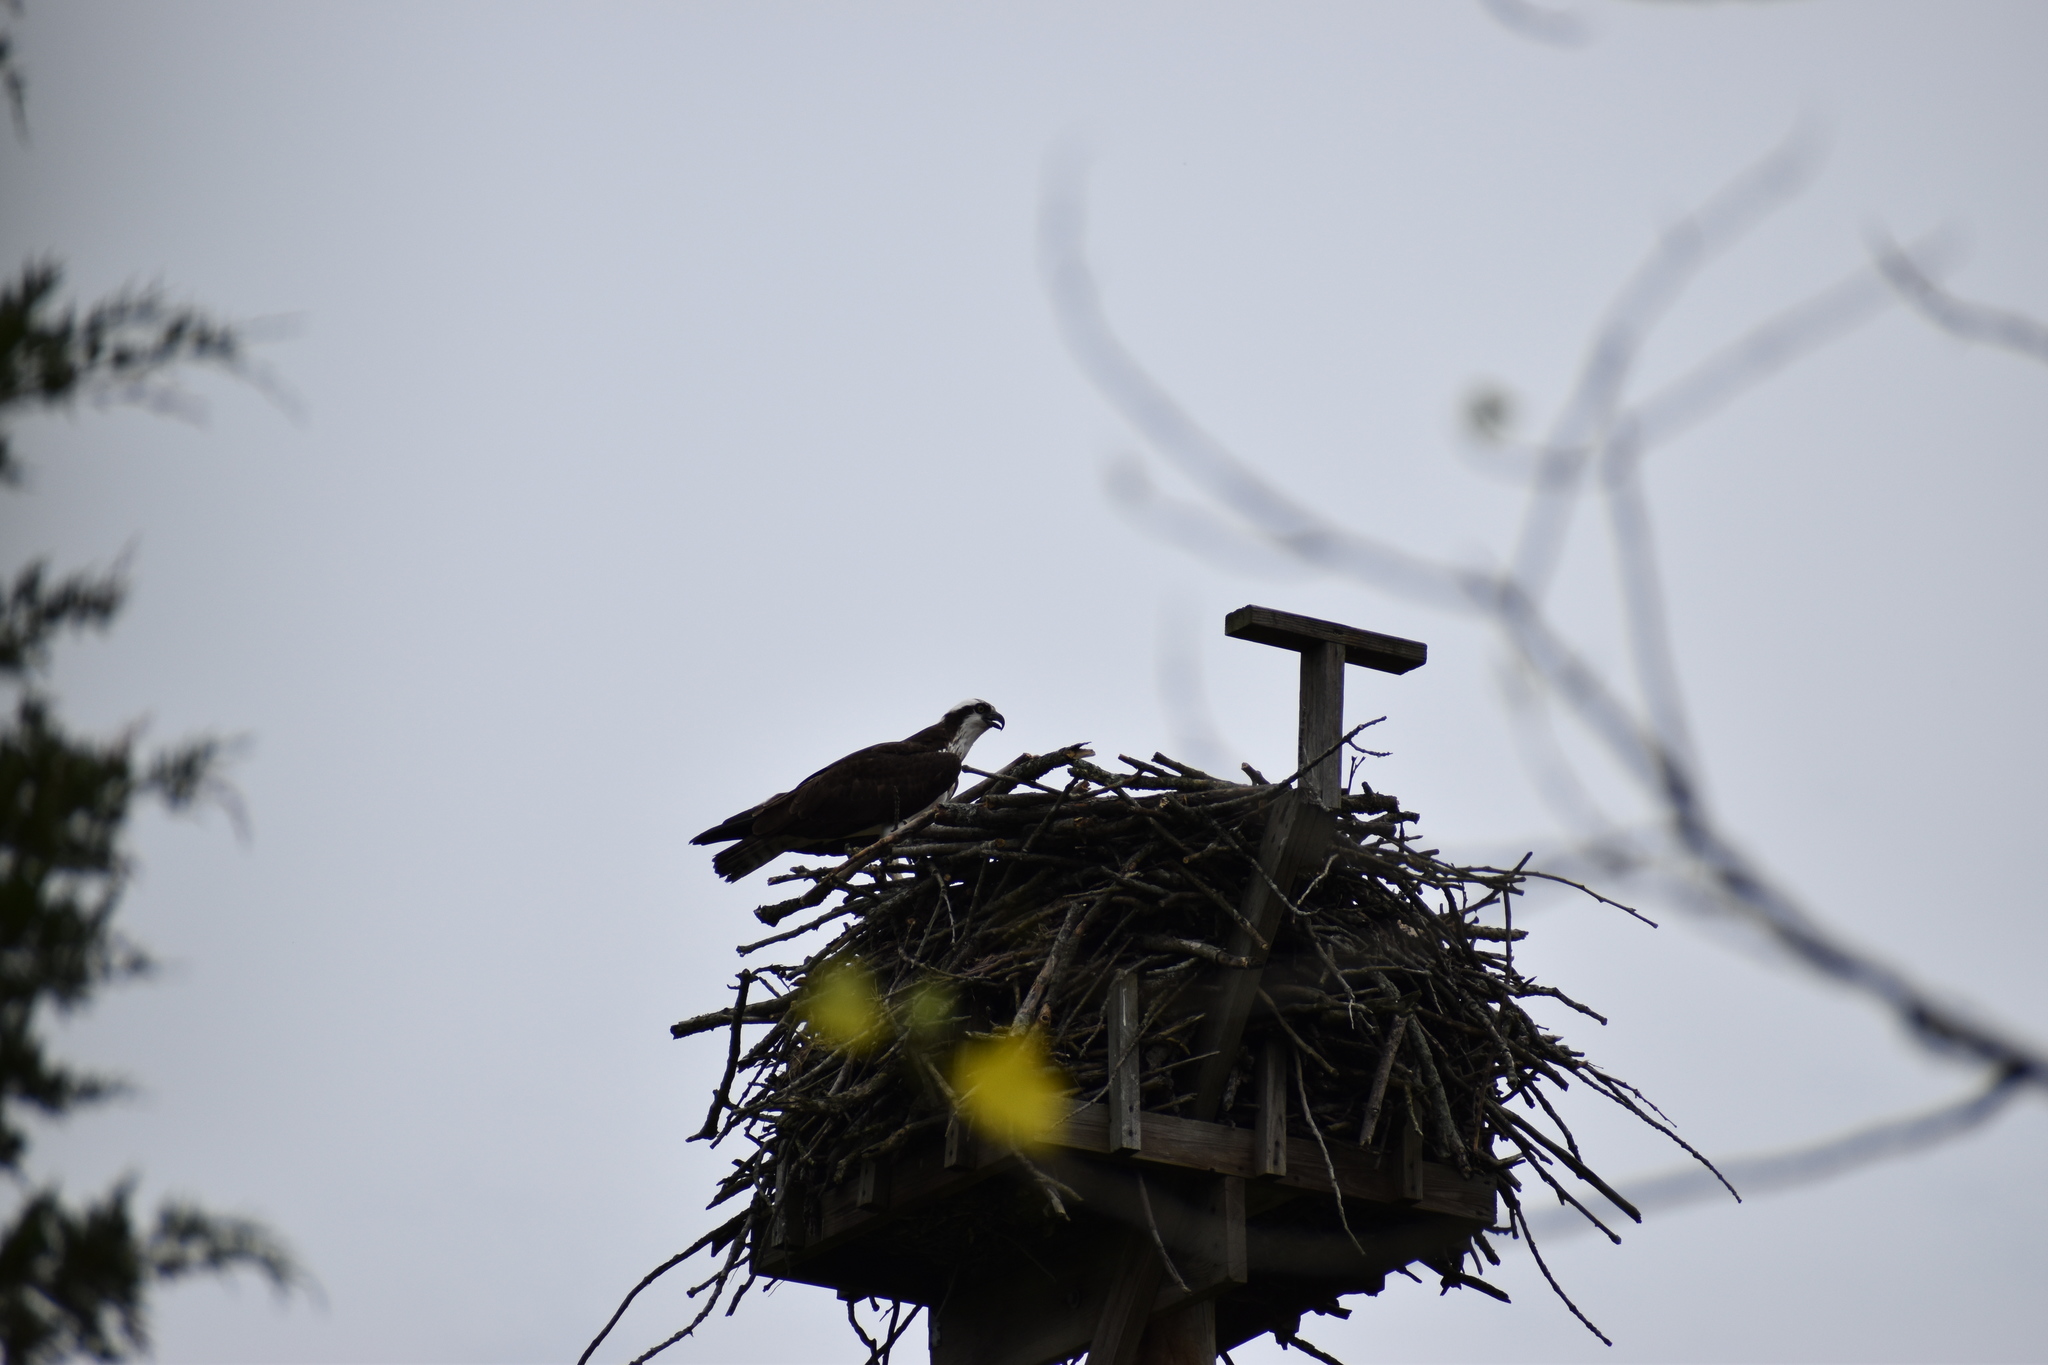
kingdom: Animalia
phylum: Chordata
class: Aves
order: Accipitriformes
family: Pandionidae
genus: Pandion
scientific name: Pandion haliaetus
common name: Osprey
